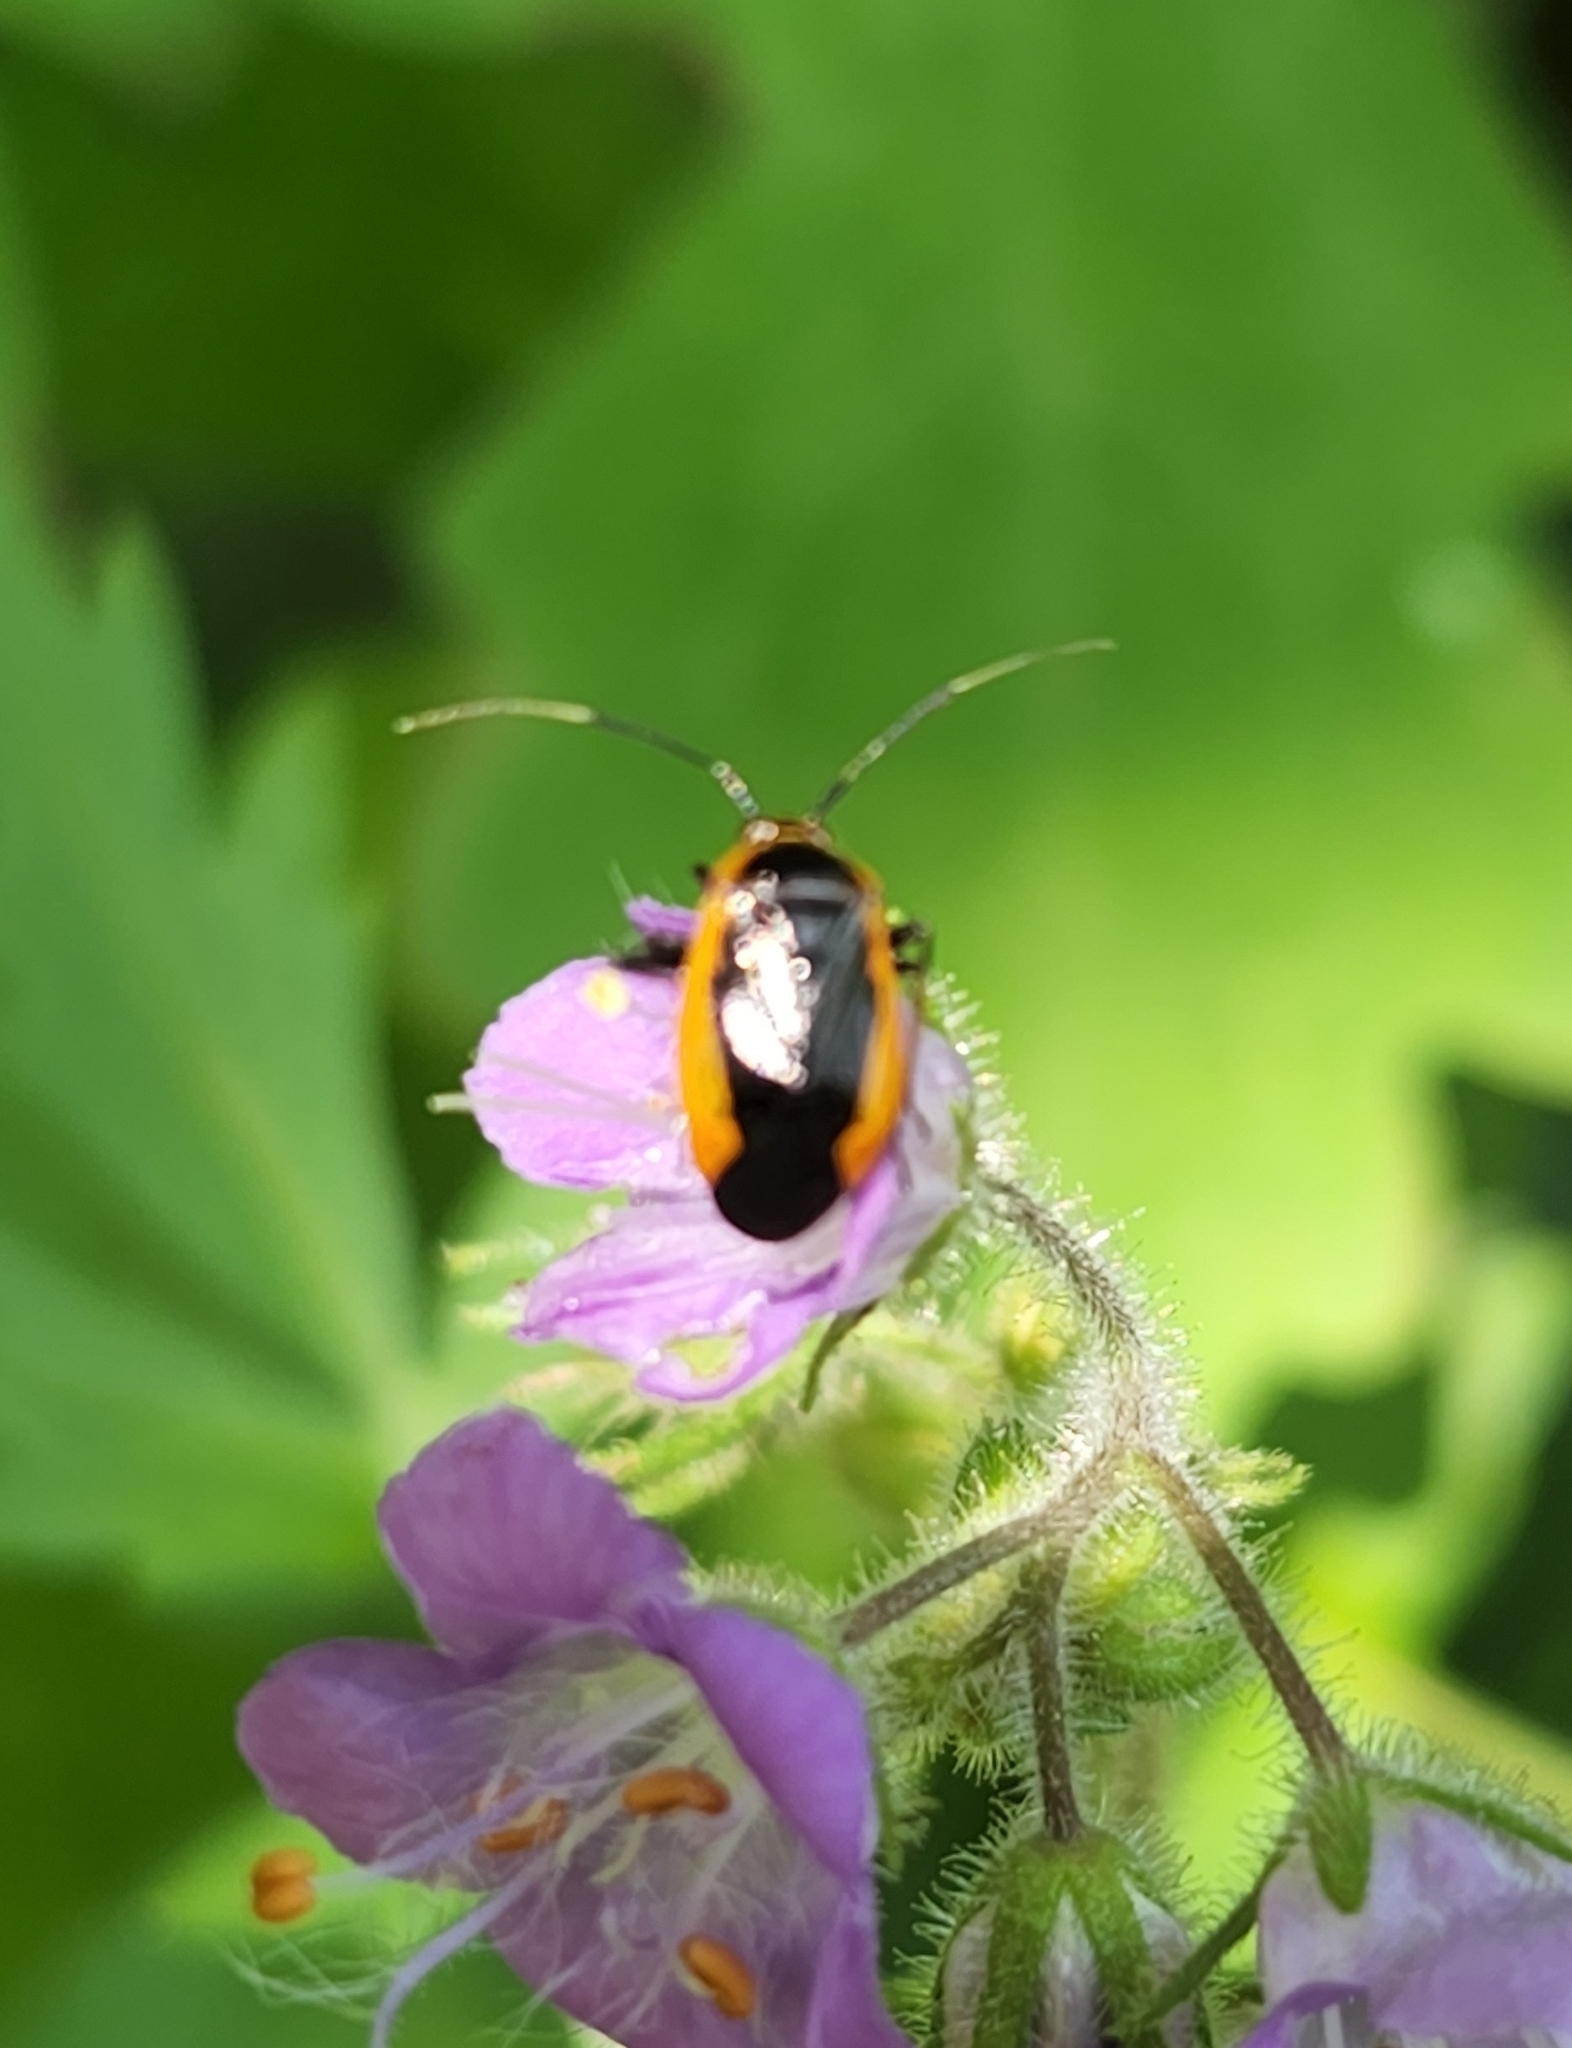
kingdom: Animalia
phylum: Arthropoda
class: Insecta
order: Hemiptera
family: Miridae
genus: Metriorrhynchomiris
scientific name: Metriorrhynchomiris dislocatus
